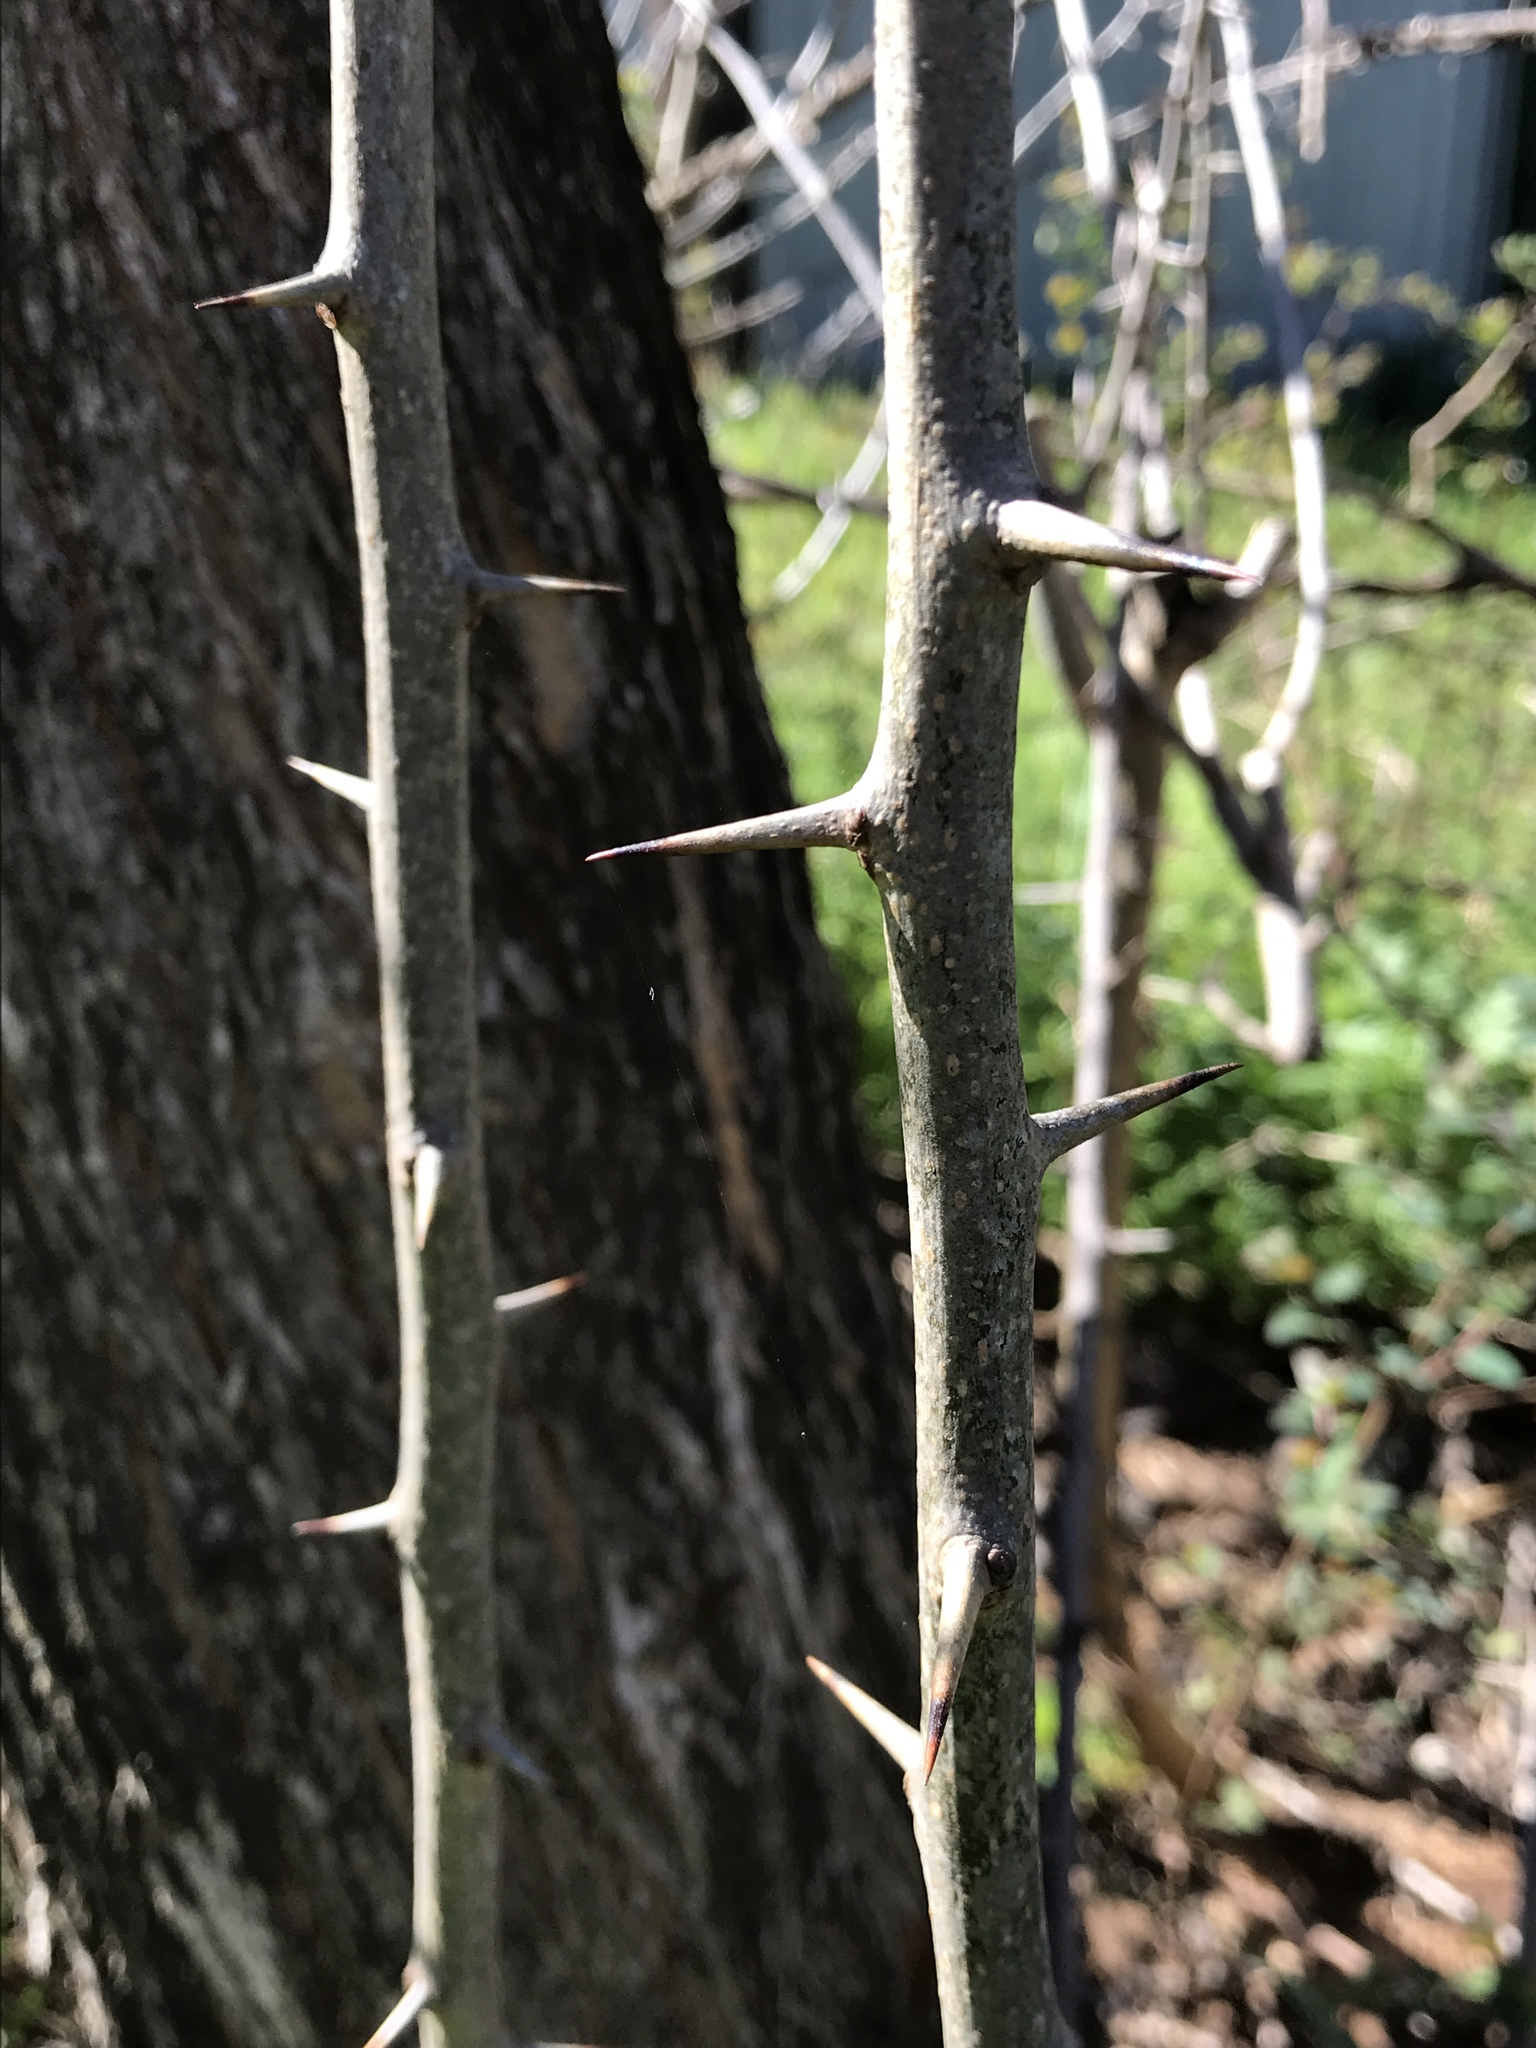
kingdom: Plantae
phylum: Tracheophyta
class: Magnoliopsida
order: Rosales
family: Moraceae
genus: Maclura
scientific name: Maclura pomifera
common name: Osage-orange
